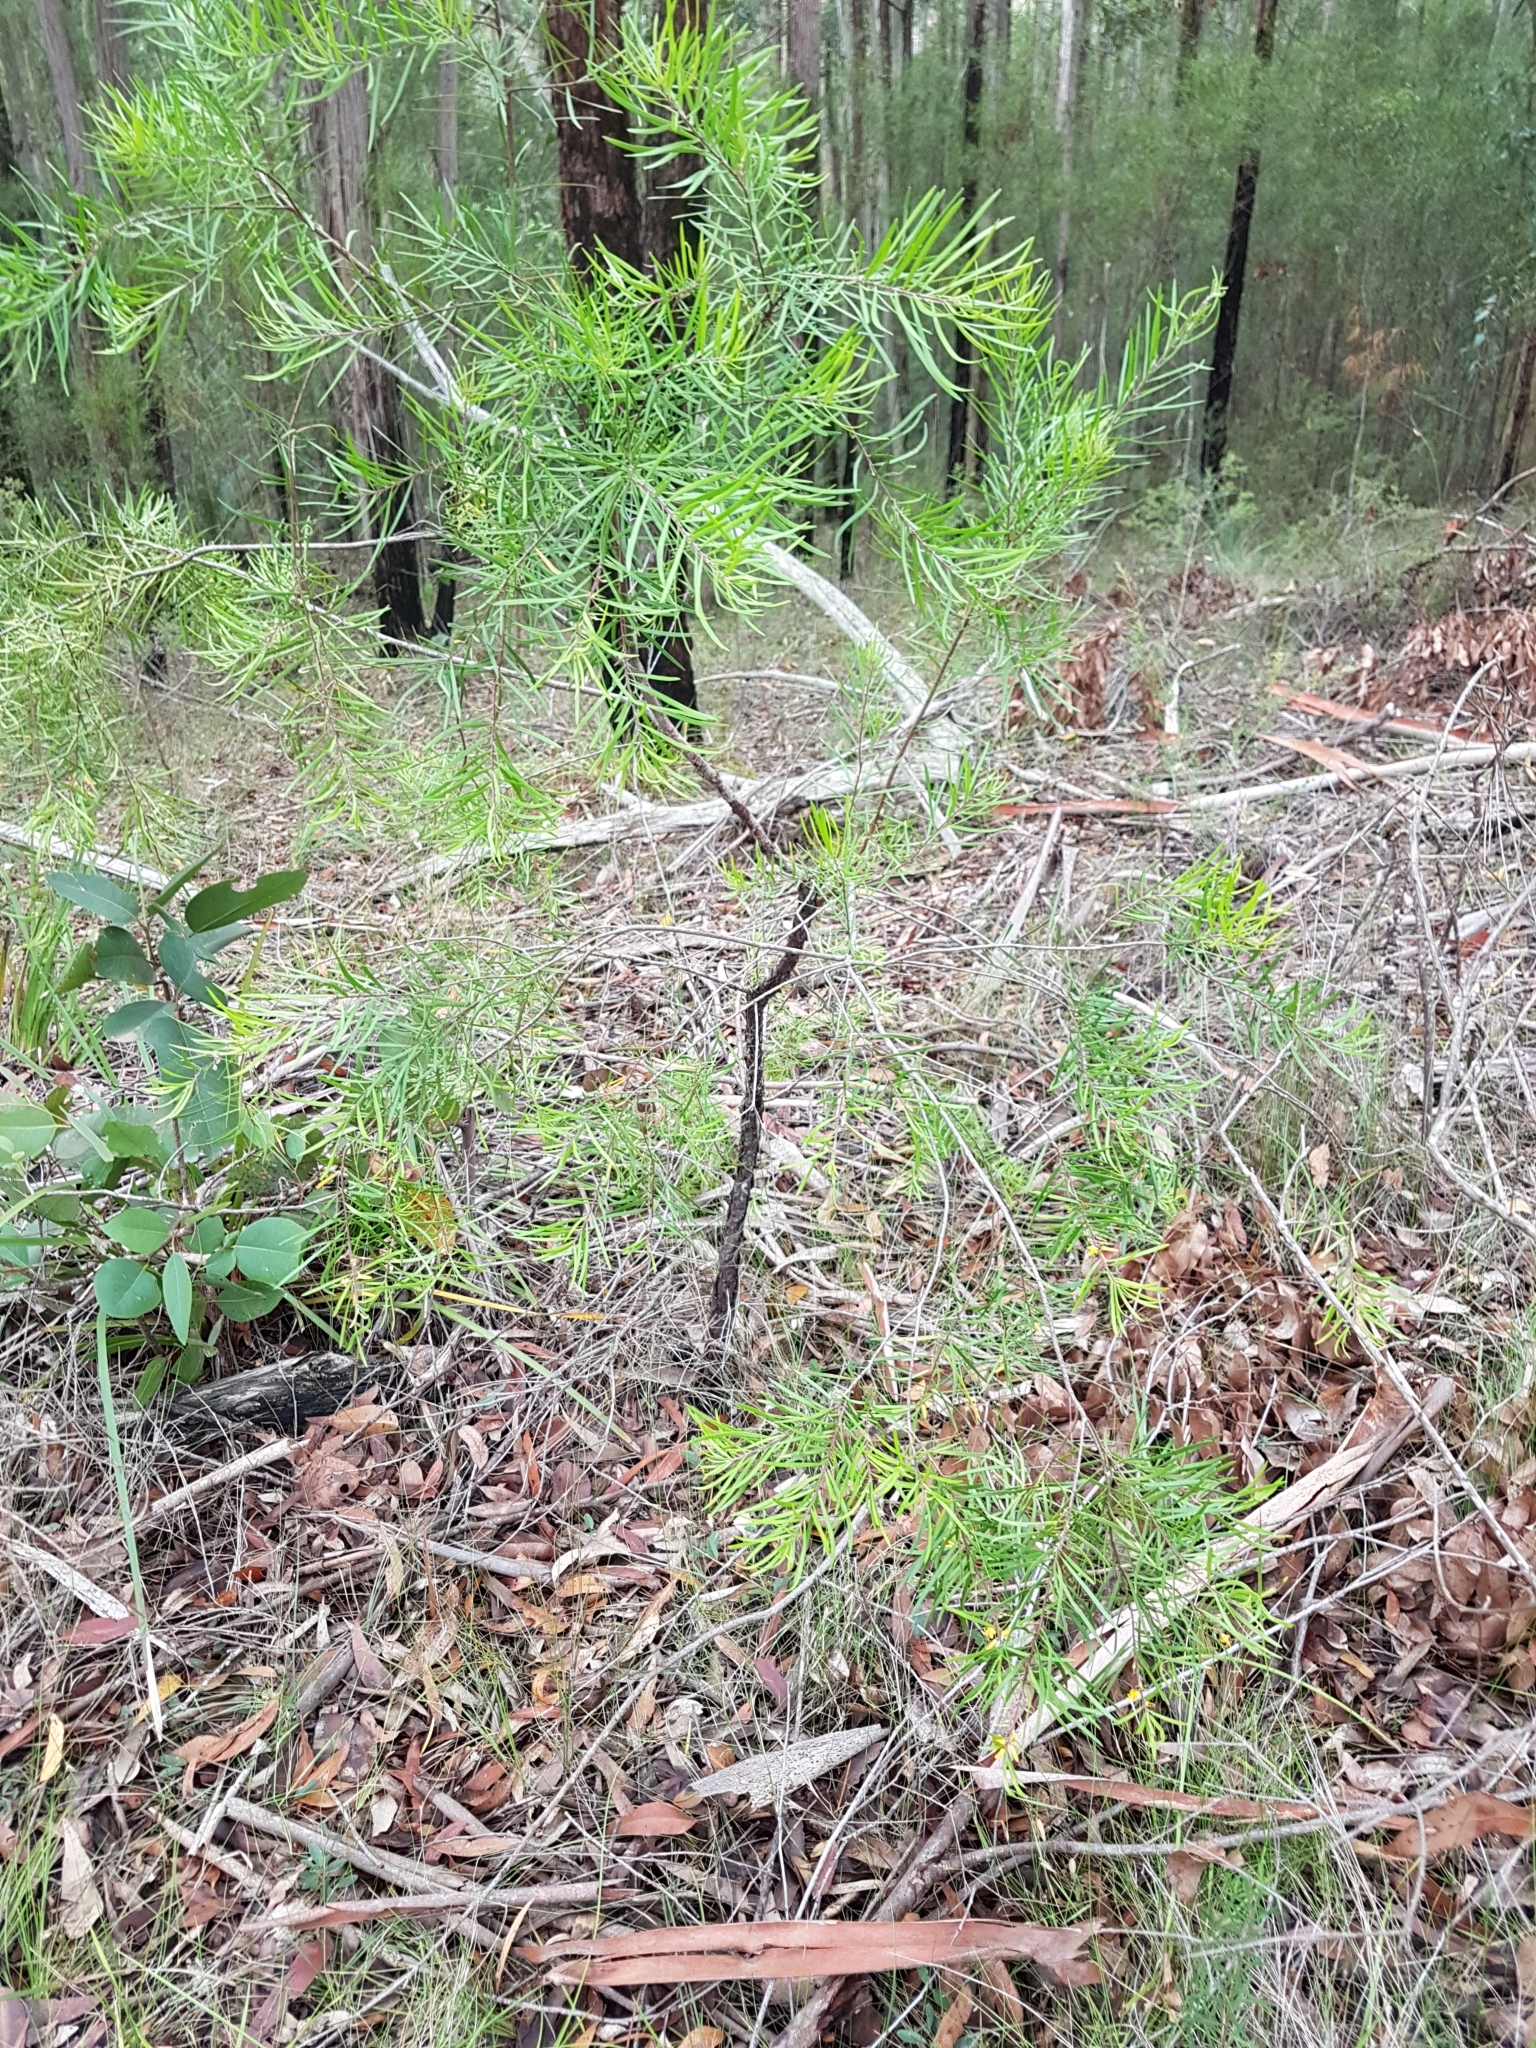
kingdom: Plantae
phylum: Tracheophyta
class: Magnoliopsida
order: Proteales
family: Proteaceae
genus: Persoonia
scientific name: Persoonia linearis
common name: Narrow-leaf geebung
